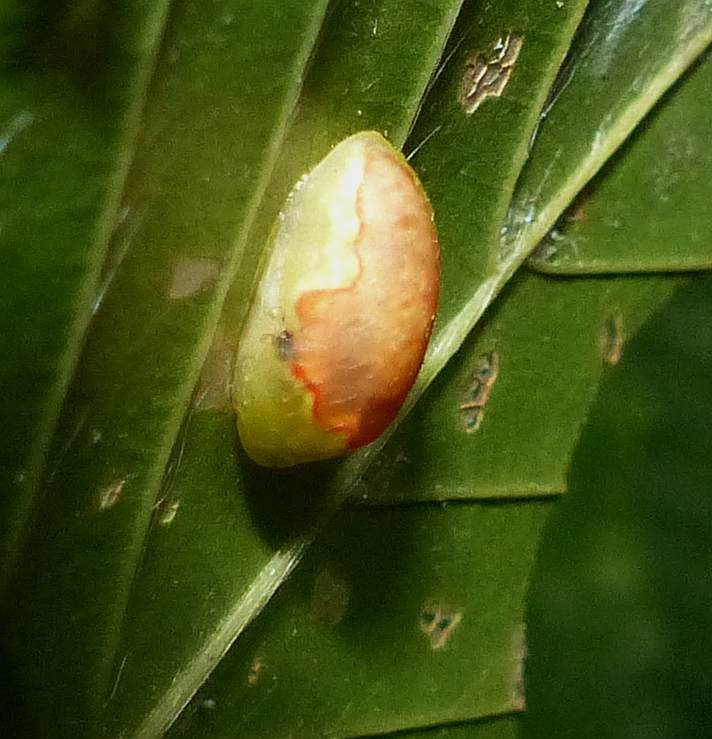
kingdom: Animalia
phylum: Arthropoda
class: Insecta
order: Lepidoptera
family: Limacodidae
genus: Tortricidia
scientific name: Tortricidia pallida
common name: Red-crossed button slug moth
